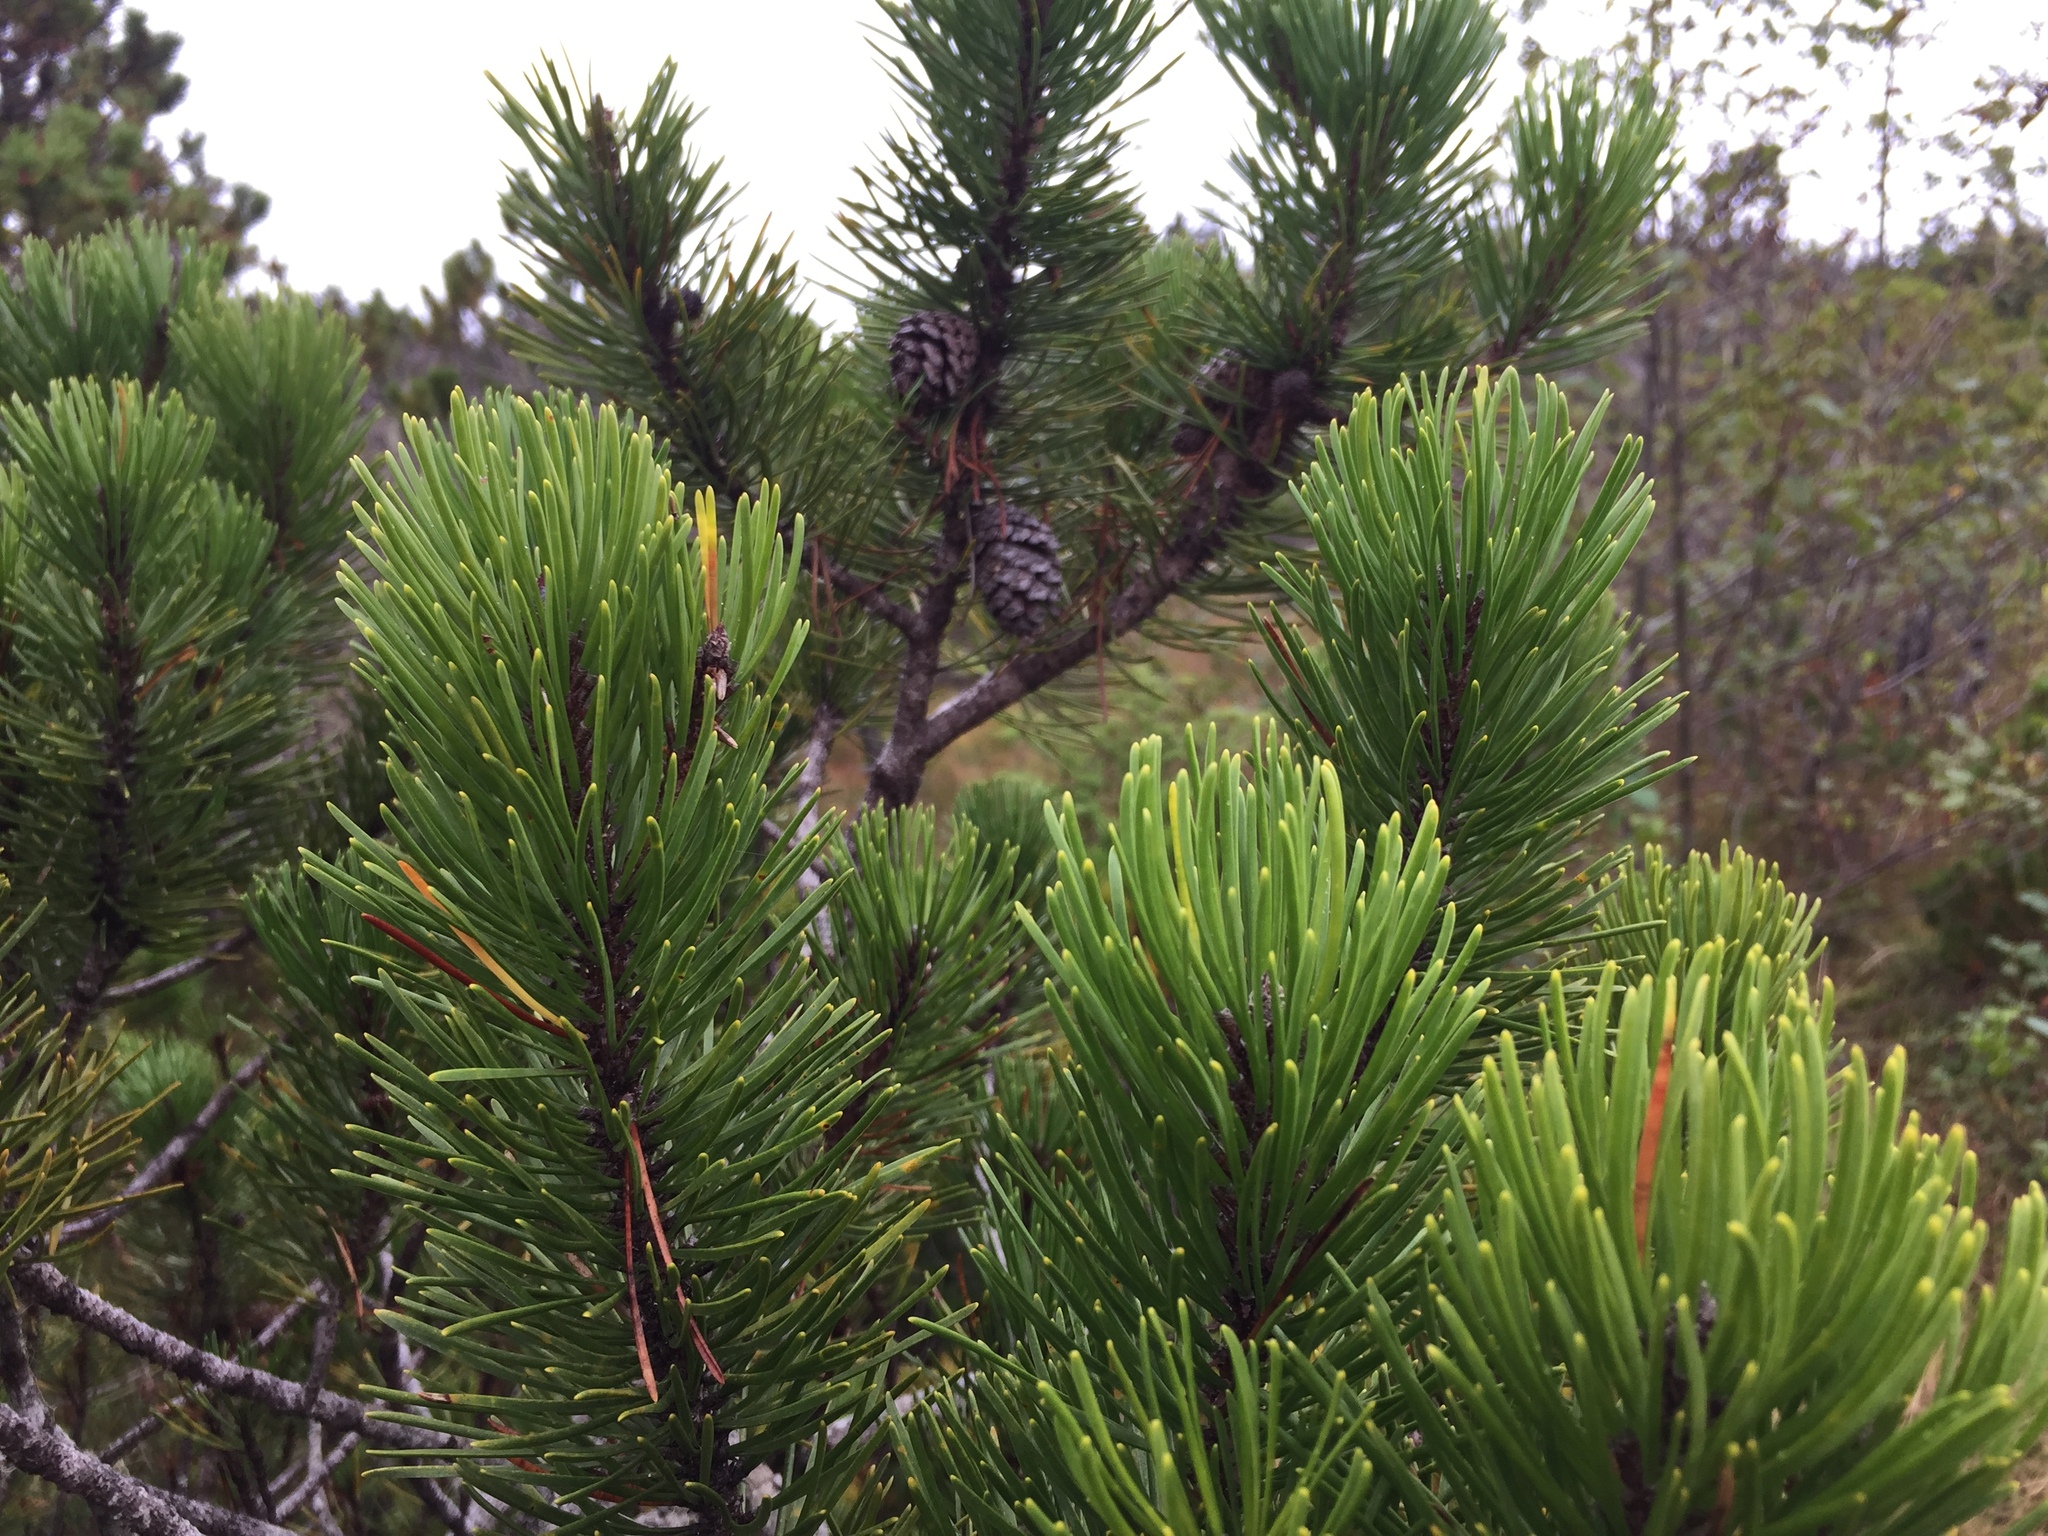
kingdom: Plantae
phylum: Tracheophyta
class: Pinopsida
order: Pinales
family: Pinaceae
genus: Pinus
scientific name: Pinus contorta
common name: Lodgepole pine
